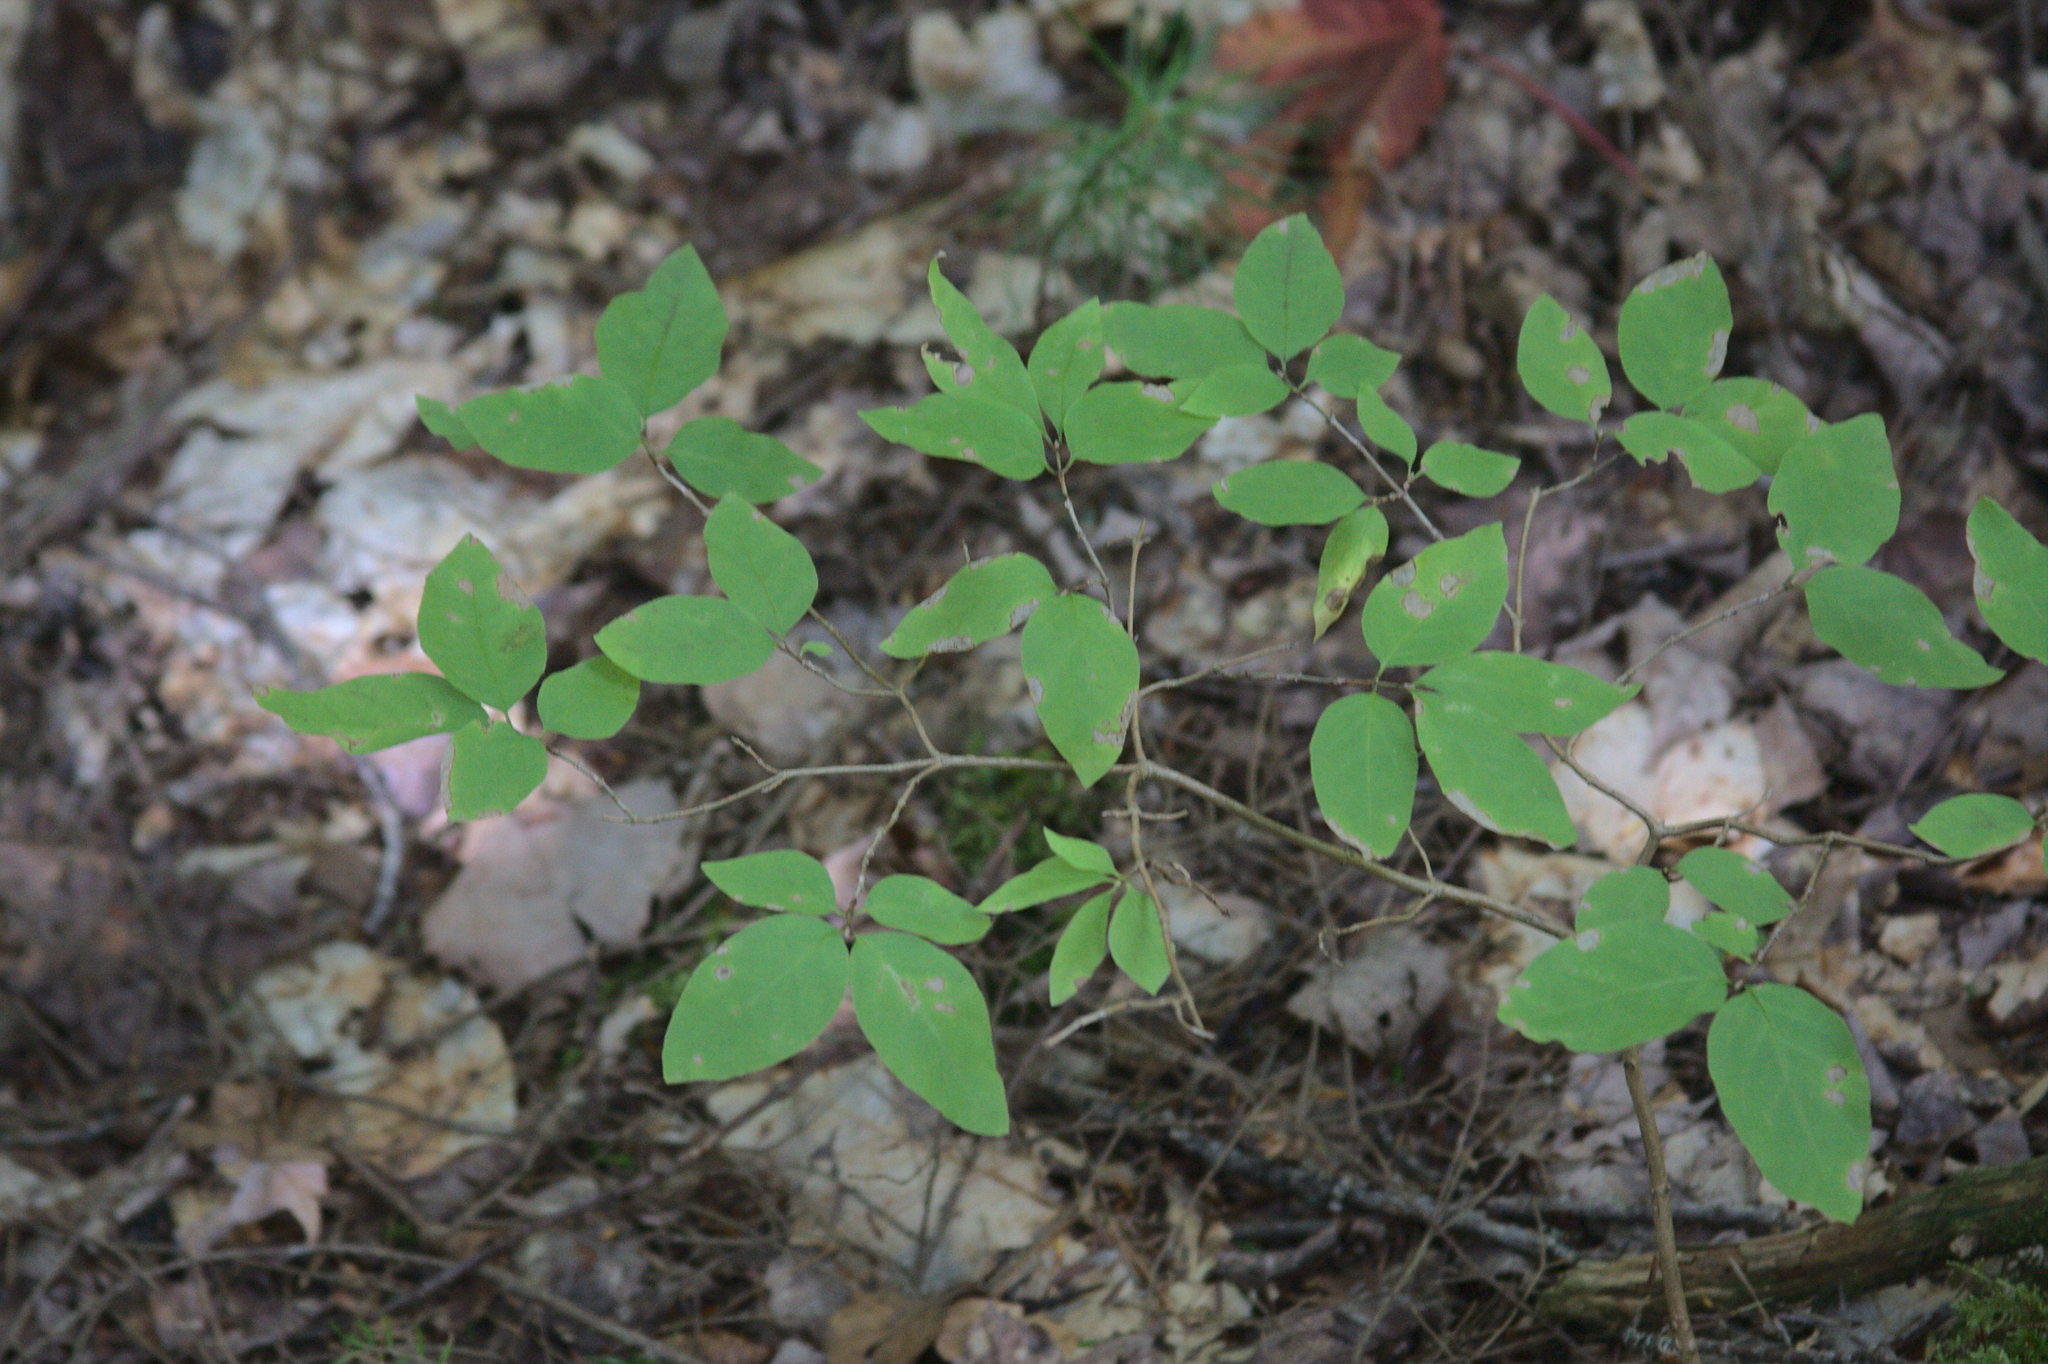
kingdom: Plantae
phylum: Tracheophyta
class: Magnoliopsida
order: Dipsacales
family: Caprifoliaceae
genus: Lonicera
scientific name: Lonicera canadensis
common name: American fly-honeysuckle
